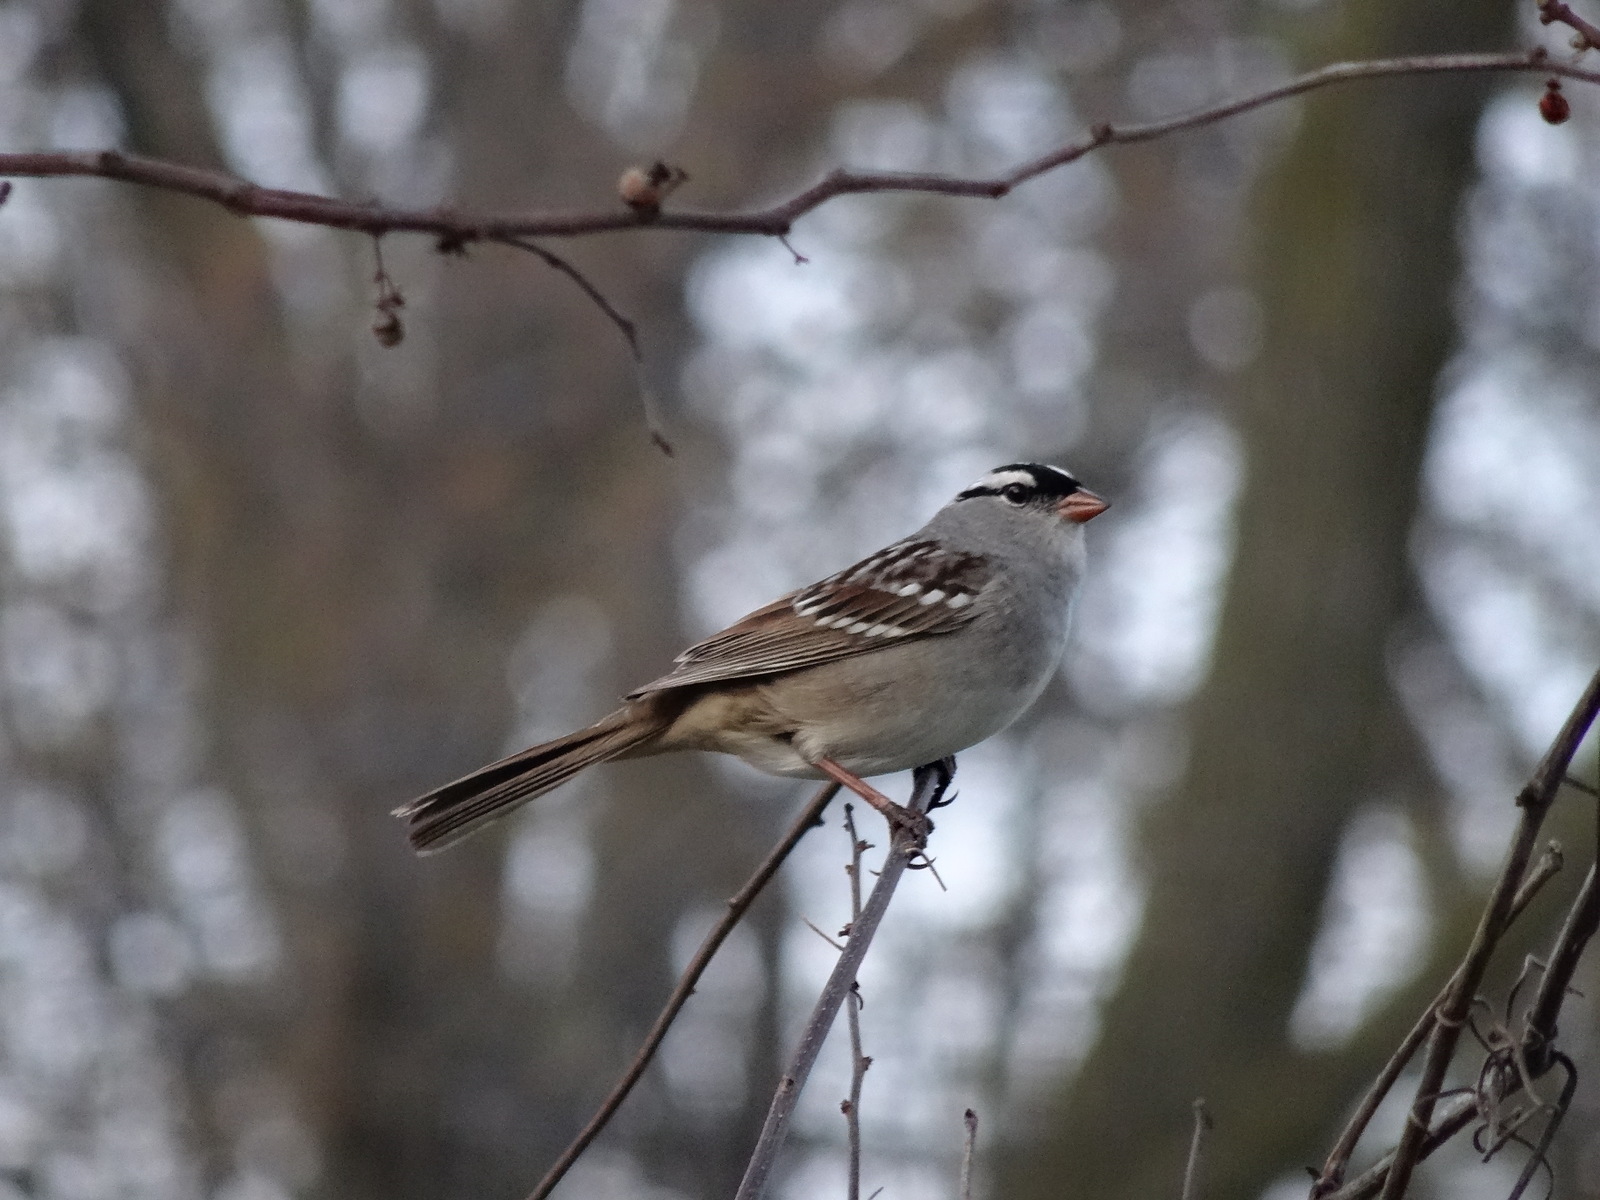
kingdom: Animalia
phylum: Chordata
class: Aves
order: Passeriformes
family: Passerellidae
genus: Zonotrichia
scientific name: Zonotrichia leucophrys
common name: White-crowned sparrow
